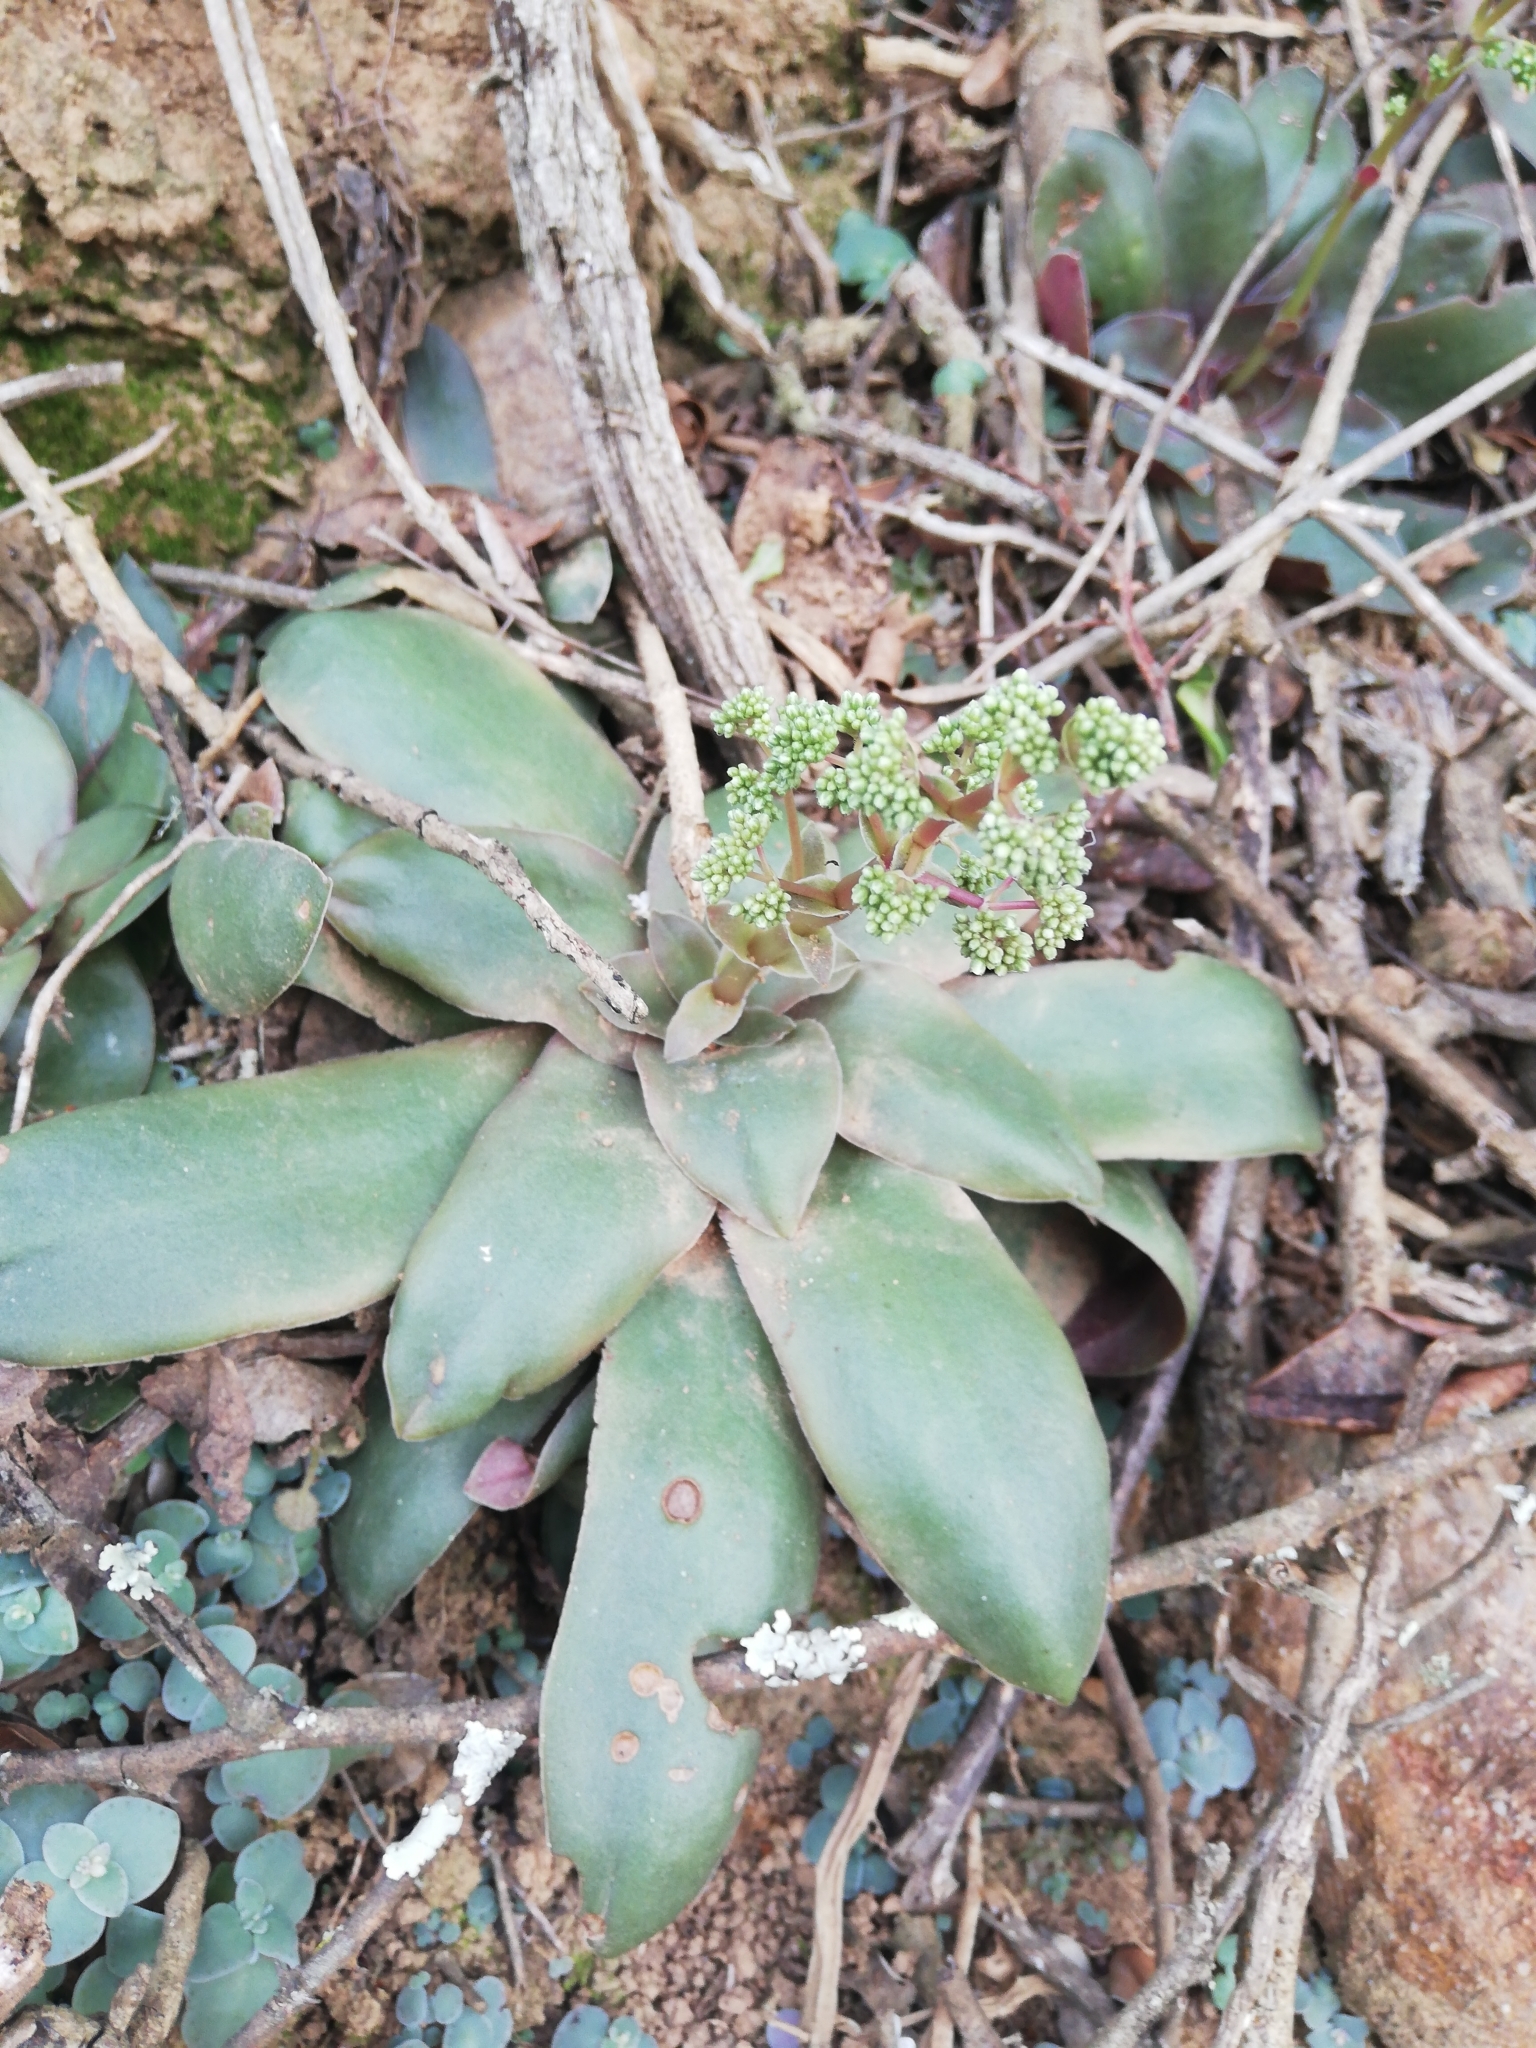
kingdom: Plantae
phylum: Tracheophyta
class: Magnoliopsida
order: Saxifragales
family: Crassulaceae
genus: Crassula
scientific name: Crassula orbicularis
